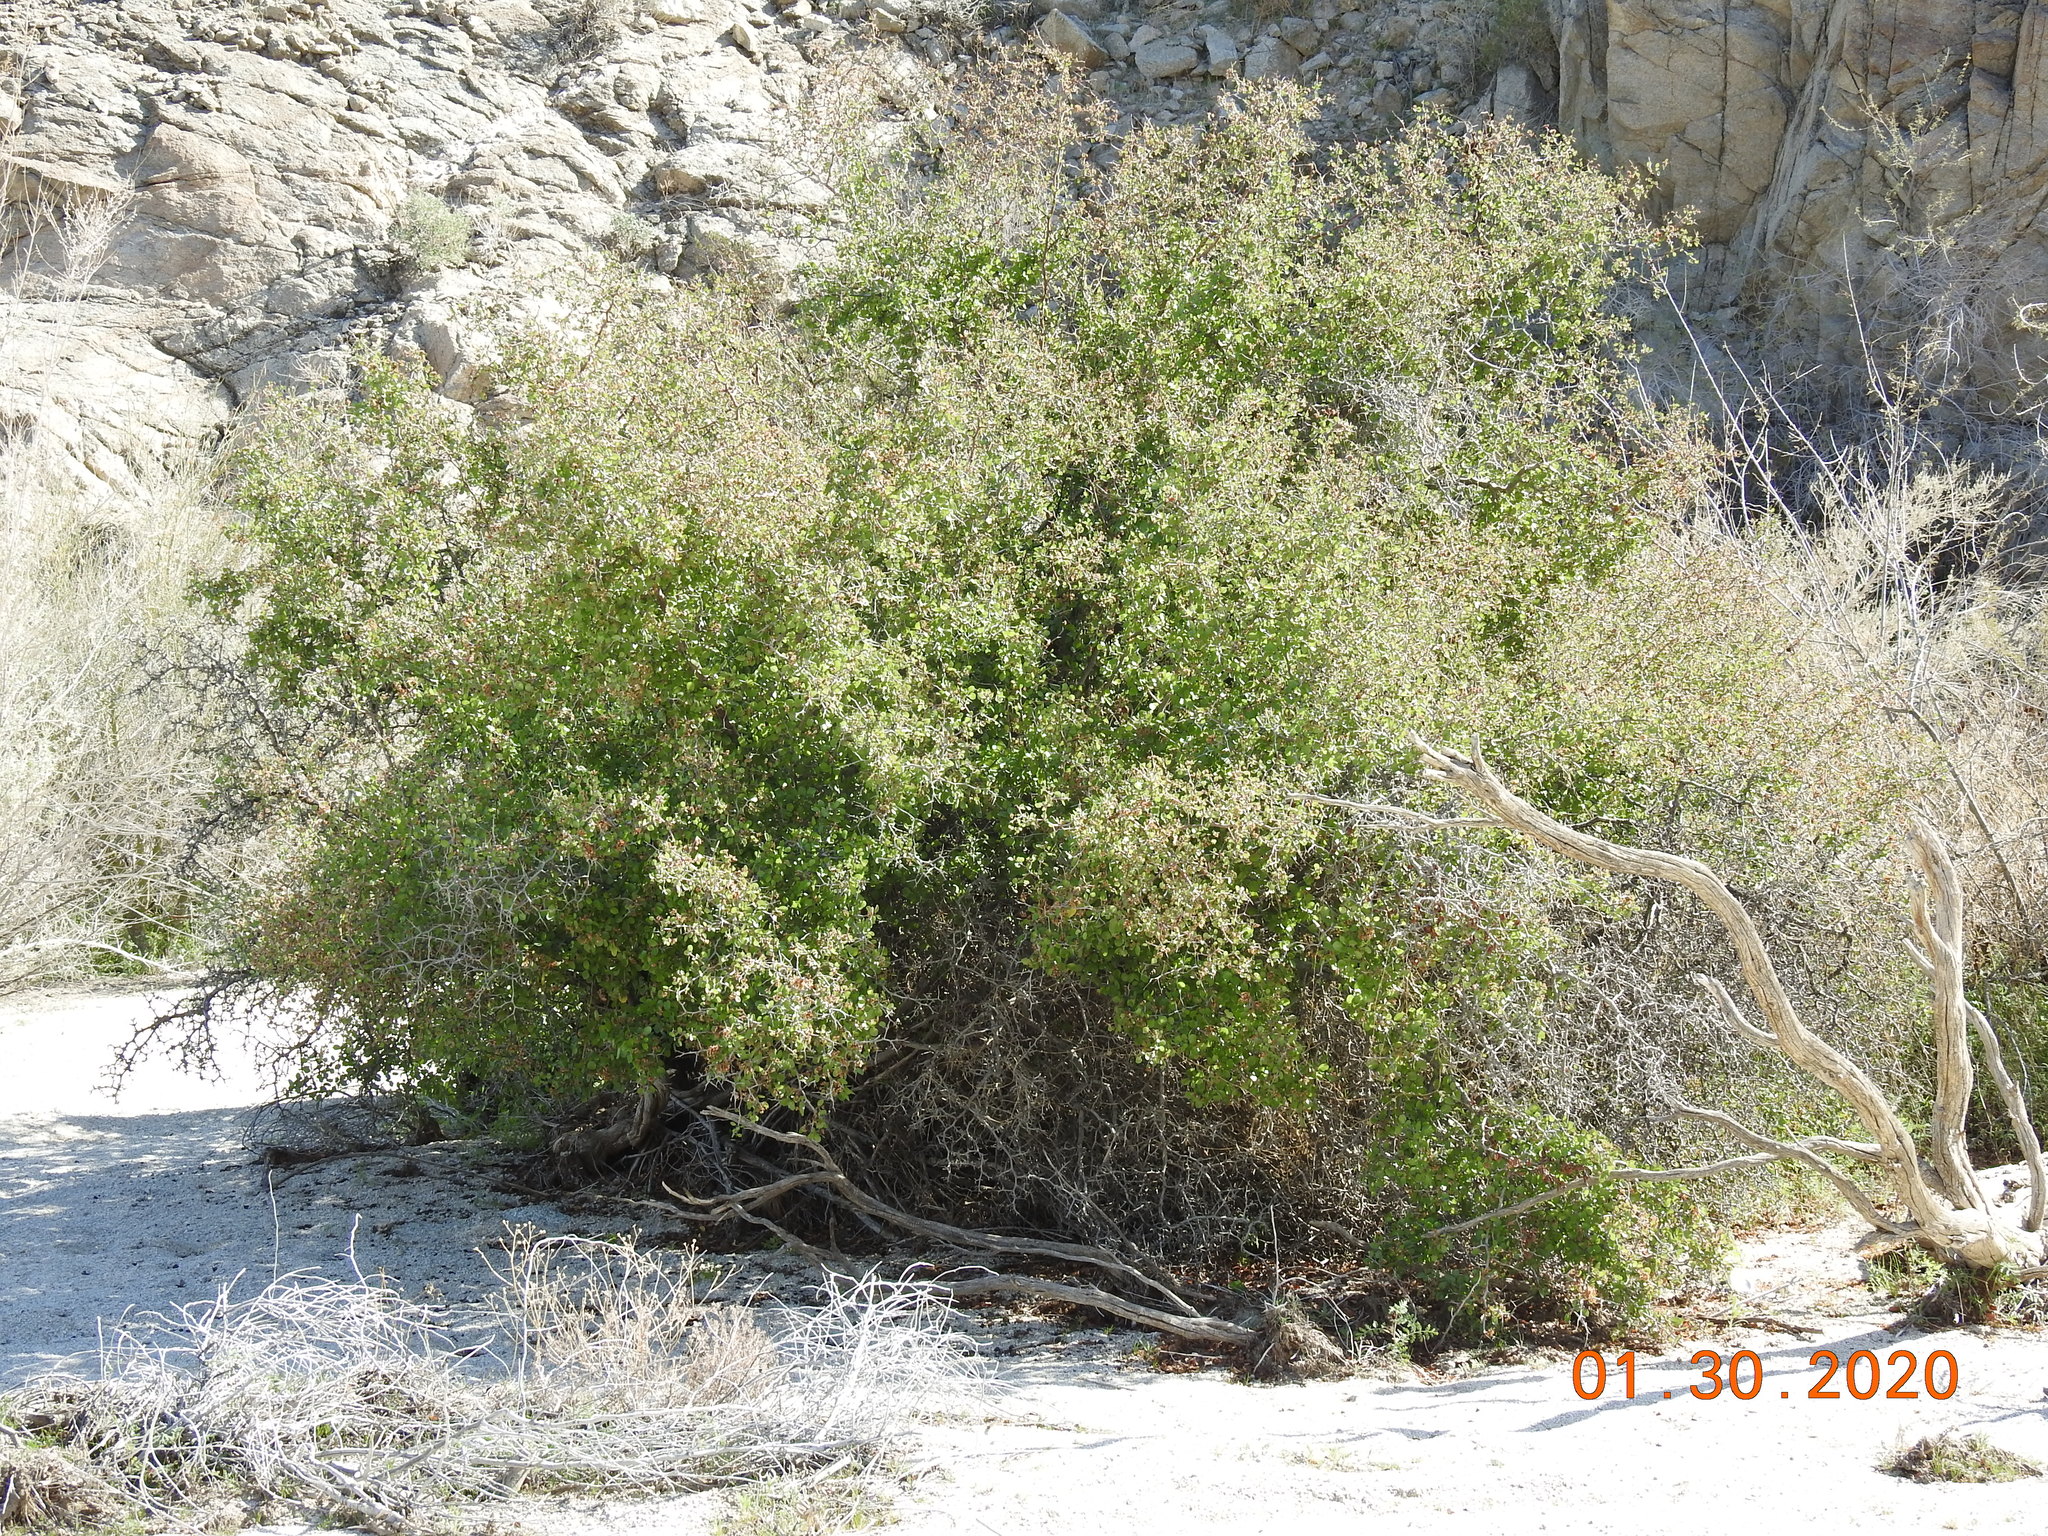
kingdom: Plantae
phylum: Tracheophyta
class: Magnoliopsida
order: Rosales
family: Rosaceae
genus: Prunus
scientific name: Prunus fremontii
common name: Desert apricot
